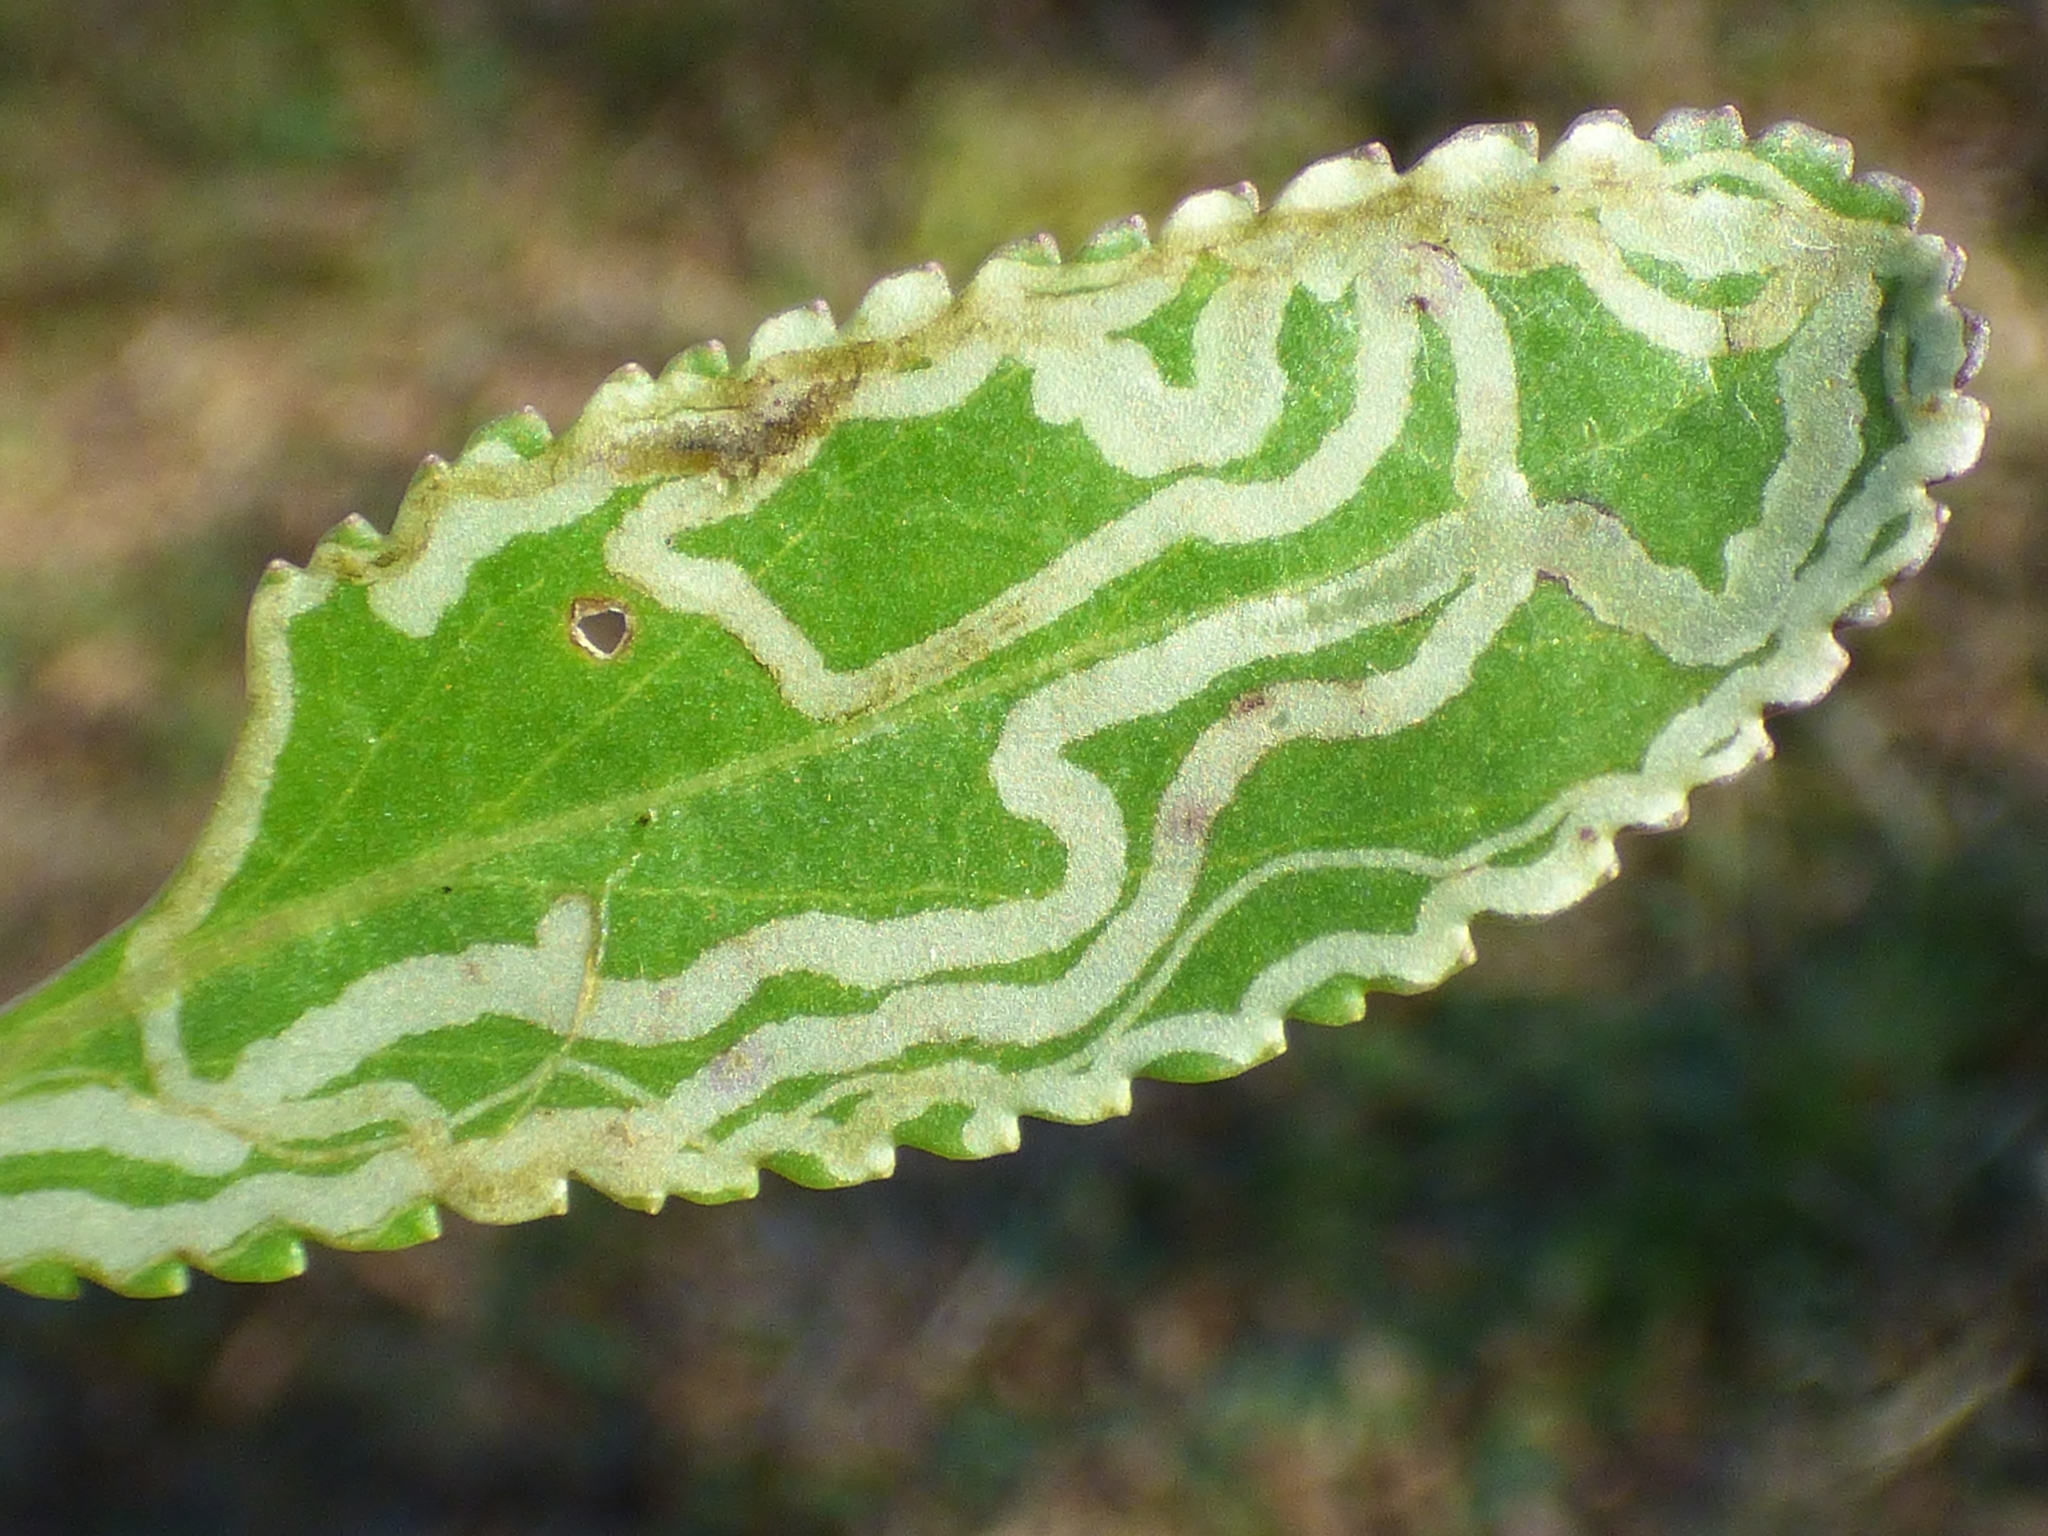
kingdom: Animalia
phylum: Arthropoda
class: Insecta
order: Lepidoptera
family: Gracillariidae
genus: Phyllocnistis
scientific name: Phyllocnistis insignis
